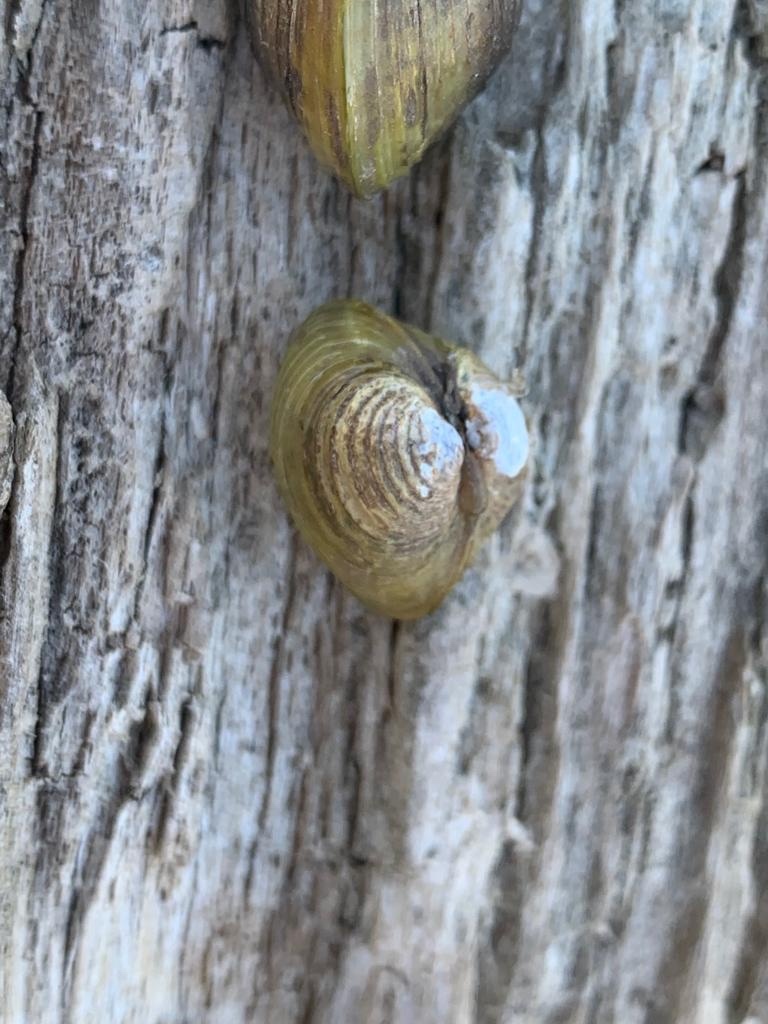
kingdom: Animalia
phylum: Mollusca
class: Bivalvia
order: Venerida
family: Cyrenidae
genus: Corbicula
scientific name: Corbicula fluminea
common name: Asian clam
